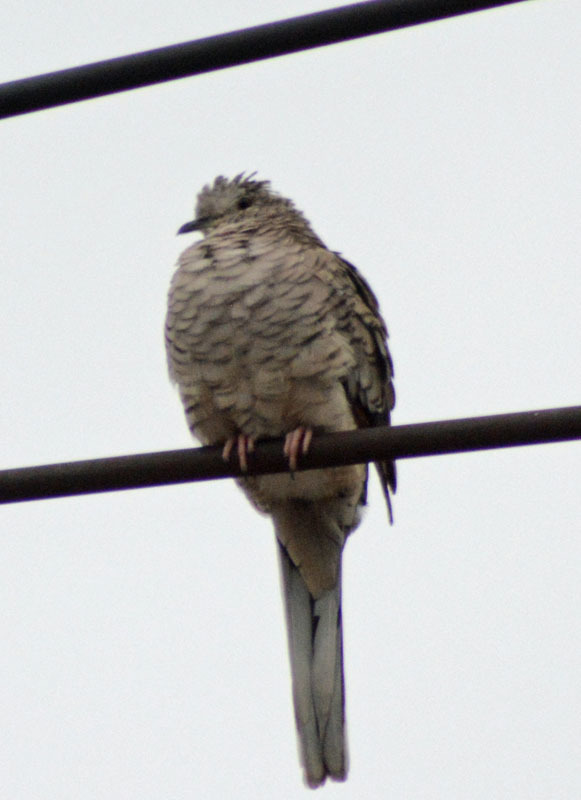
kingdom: Animalia
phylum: Chordata
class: Aves
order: Columbiformes
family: Columbidae
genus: Columbina
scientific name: Columbina inca
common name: Inca dove
